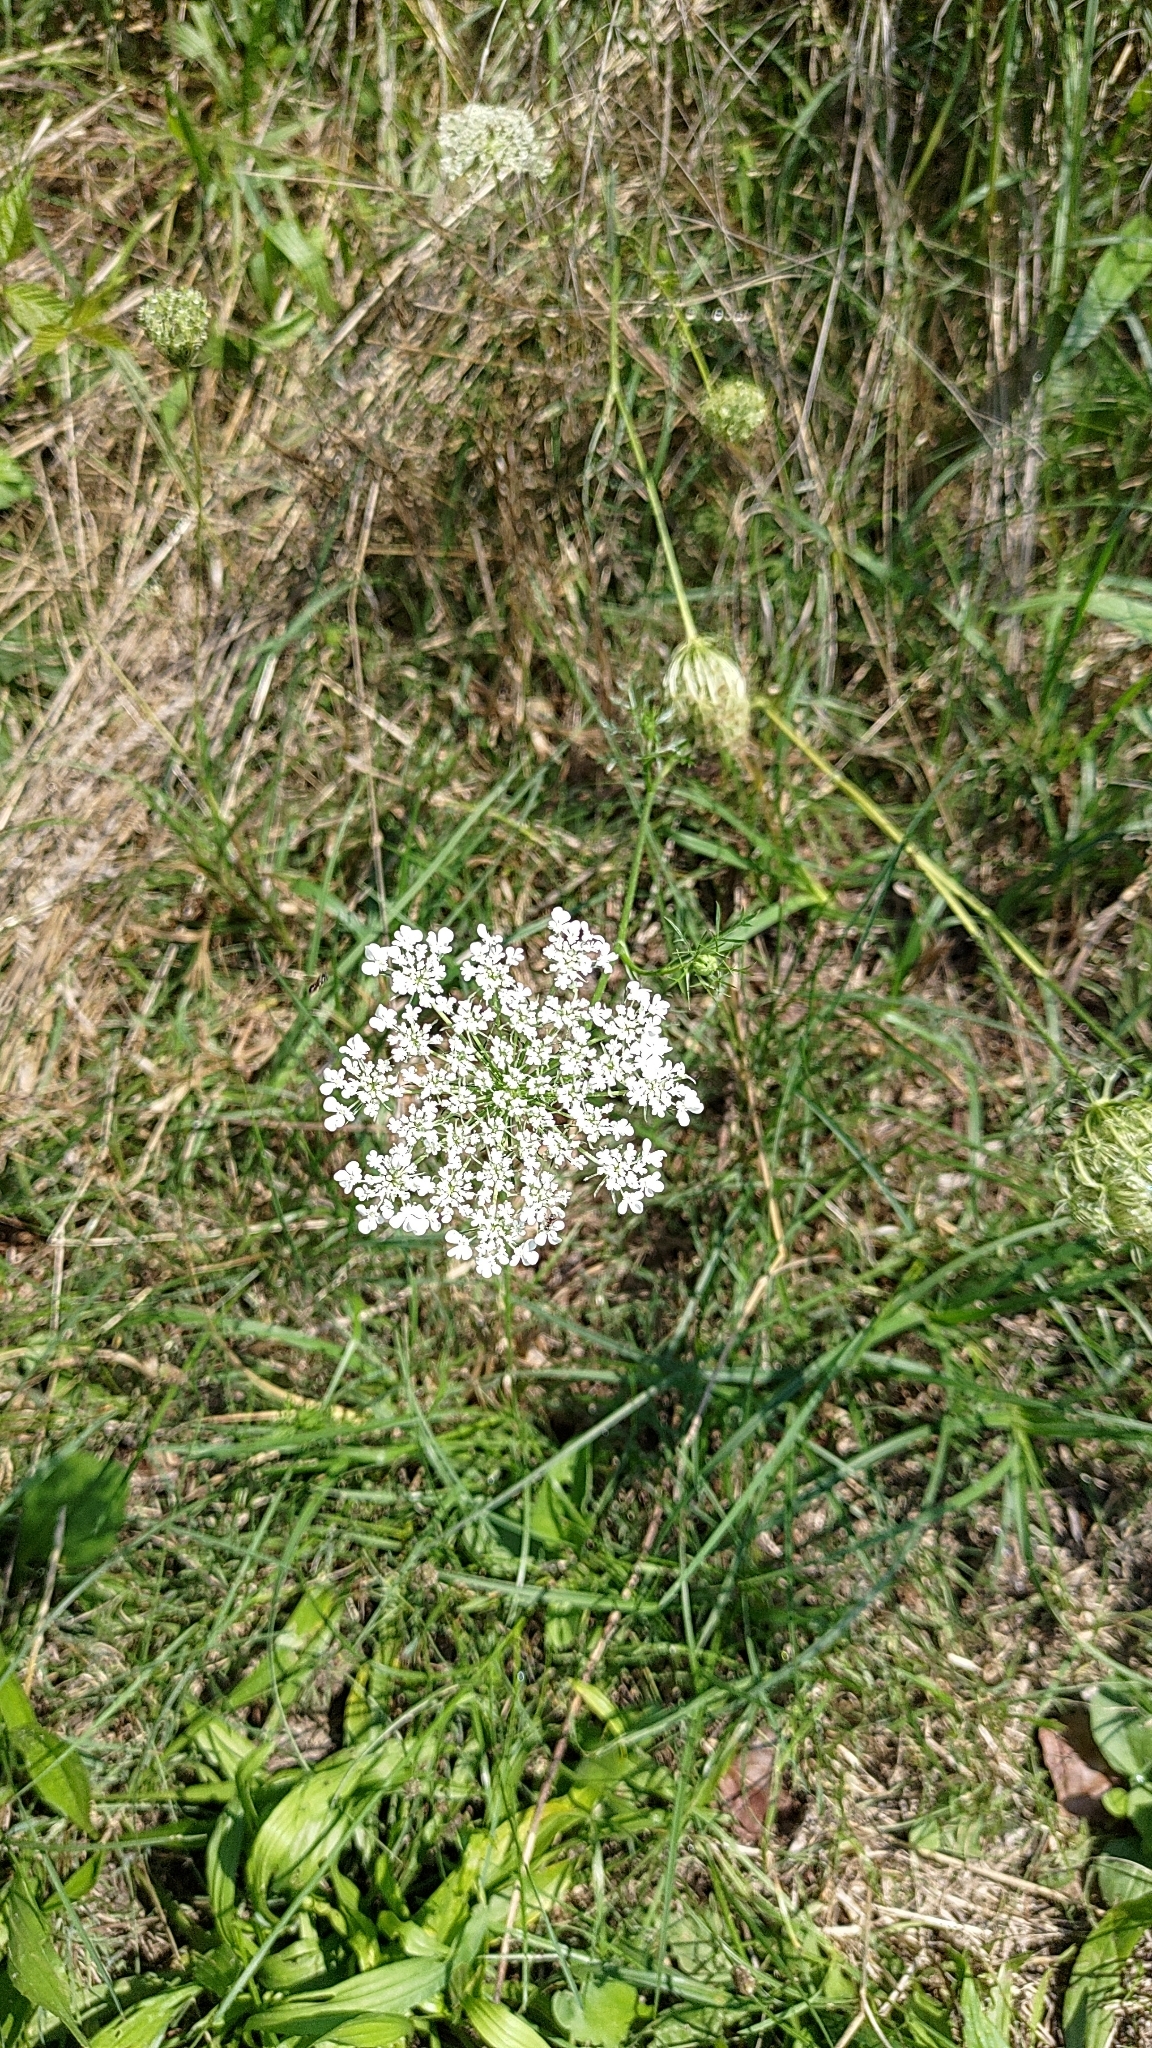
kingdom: Plantae
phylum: Tracheophyta
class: Magnoliopsida
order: Apiales
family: Apiaceae
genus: Daucus
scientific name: Daucus carota
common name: Wild carrot
